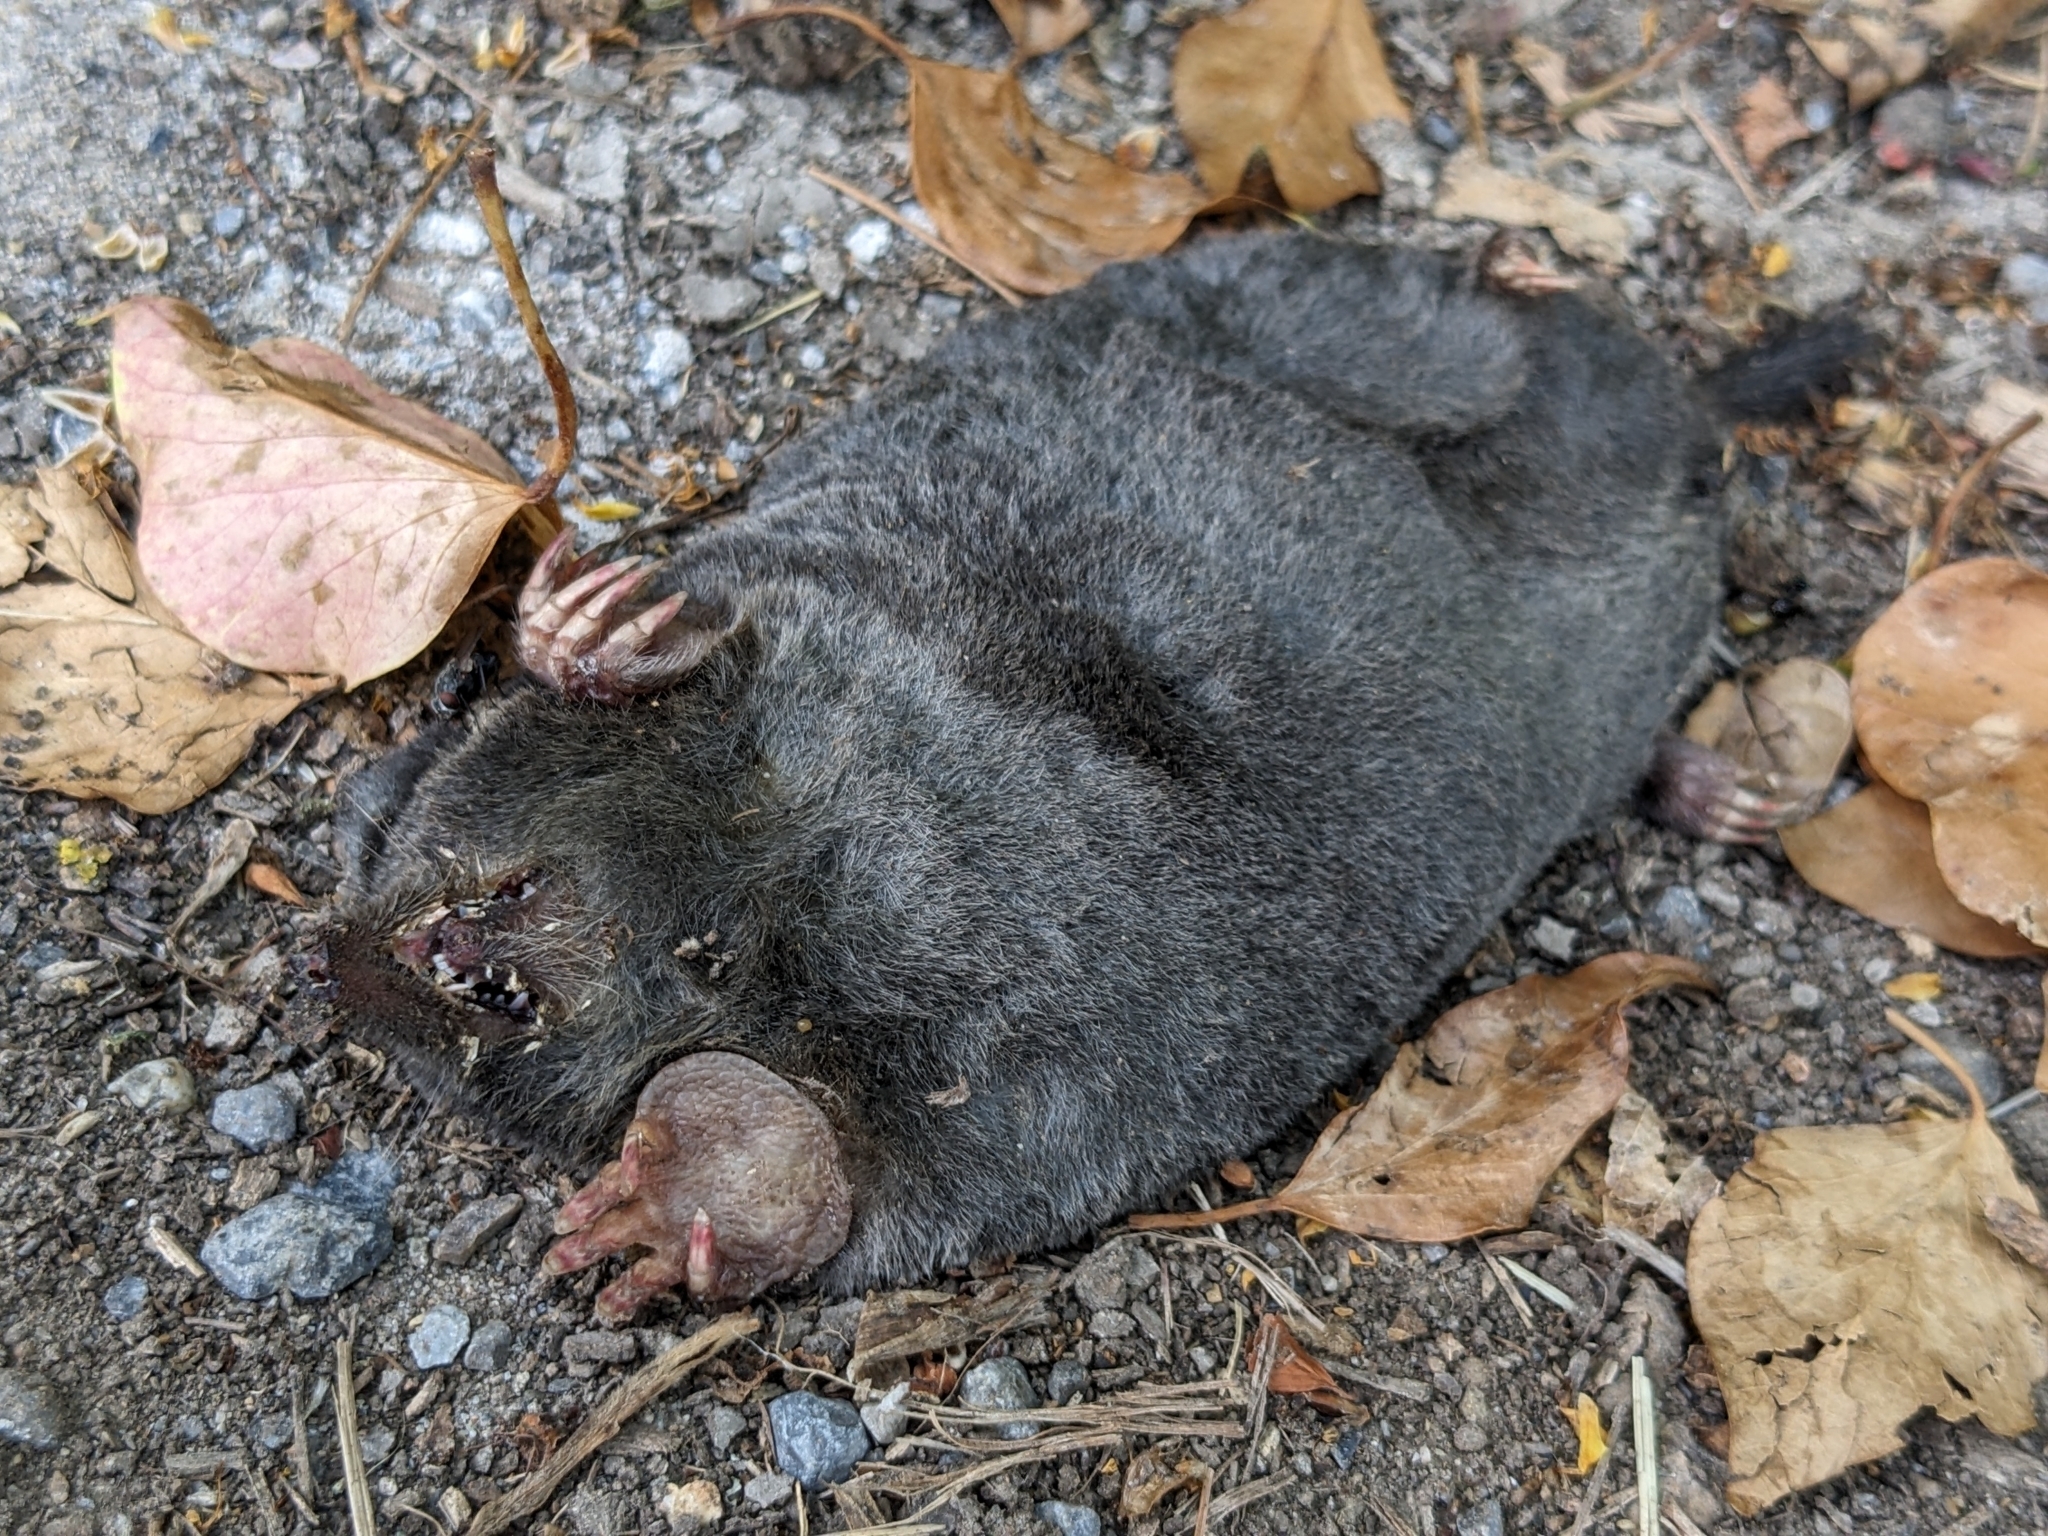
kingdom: Animalia
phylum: Chordata
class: Mammalia
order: Soricomorpha
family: Talpidae
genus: Talpa
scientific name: Talpa europaea
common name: European mole
